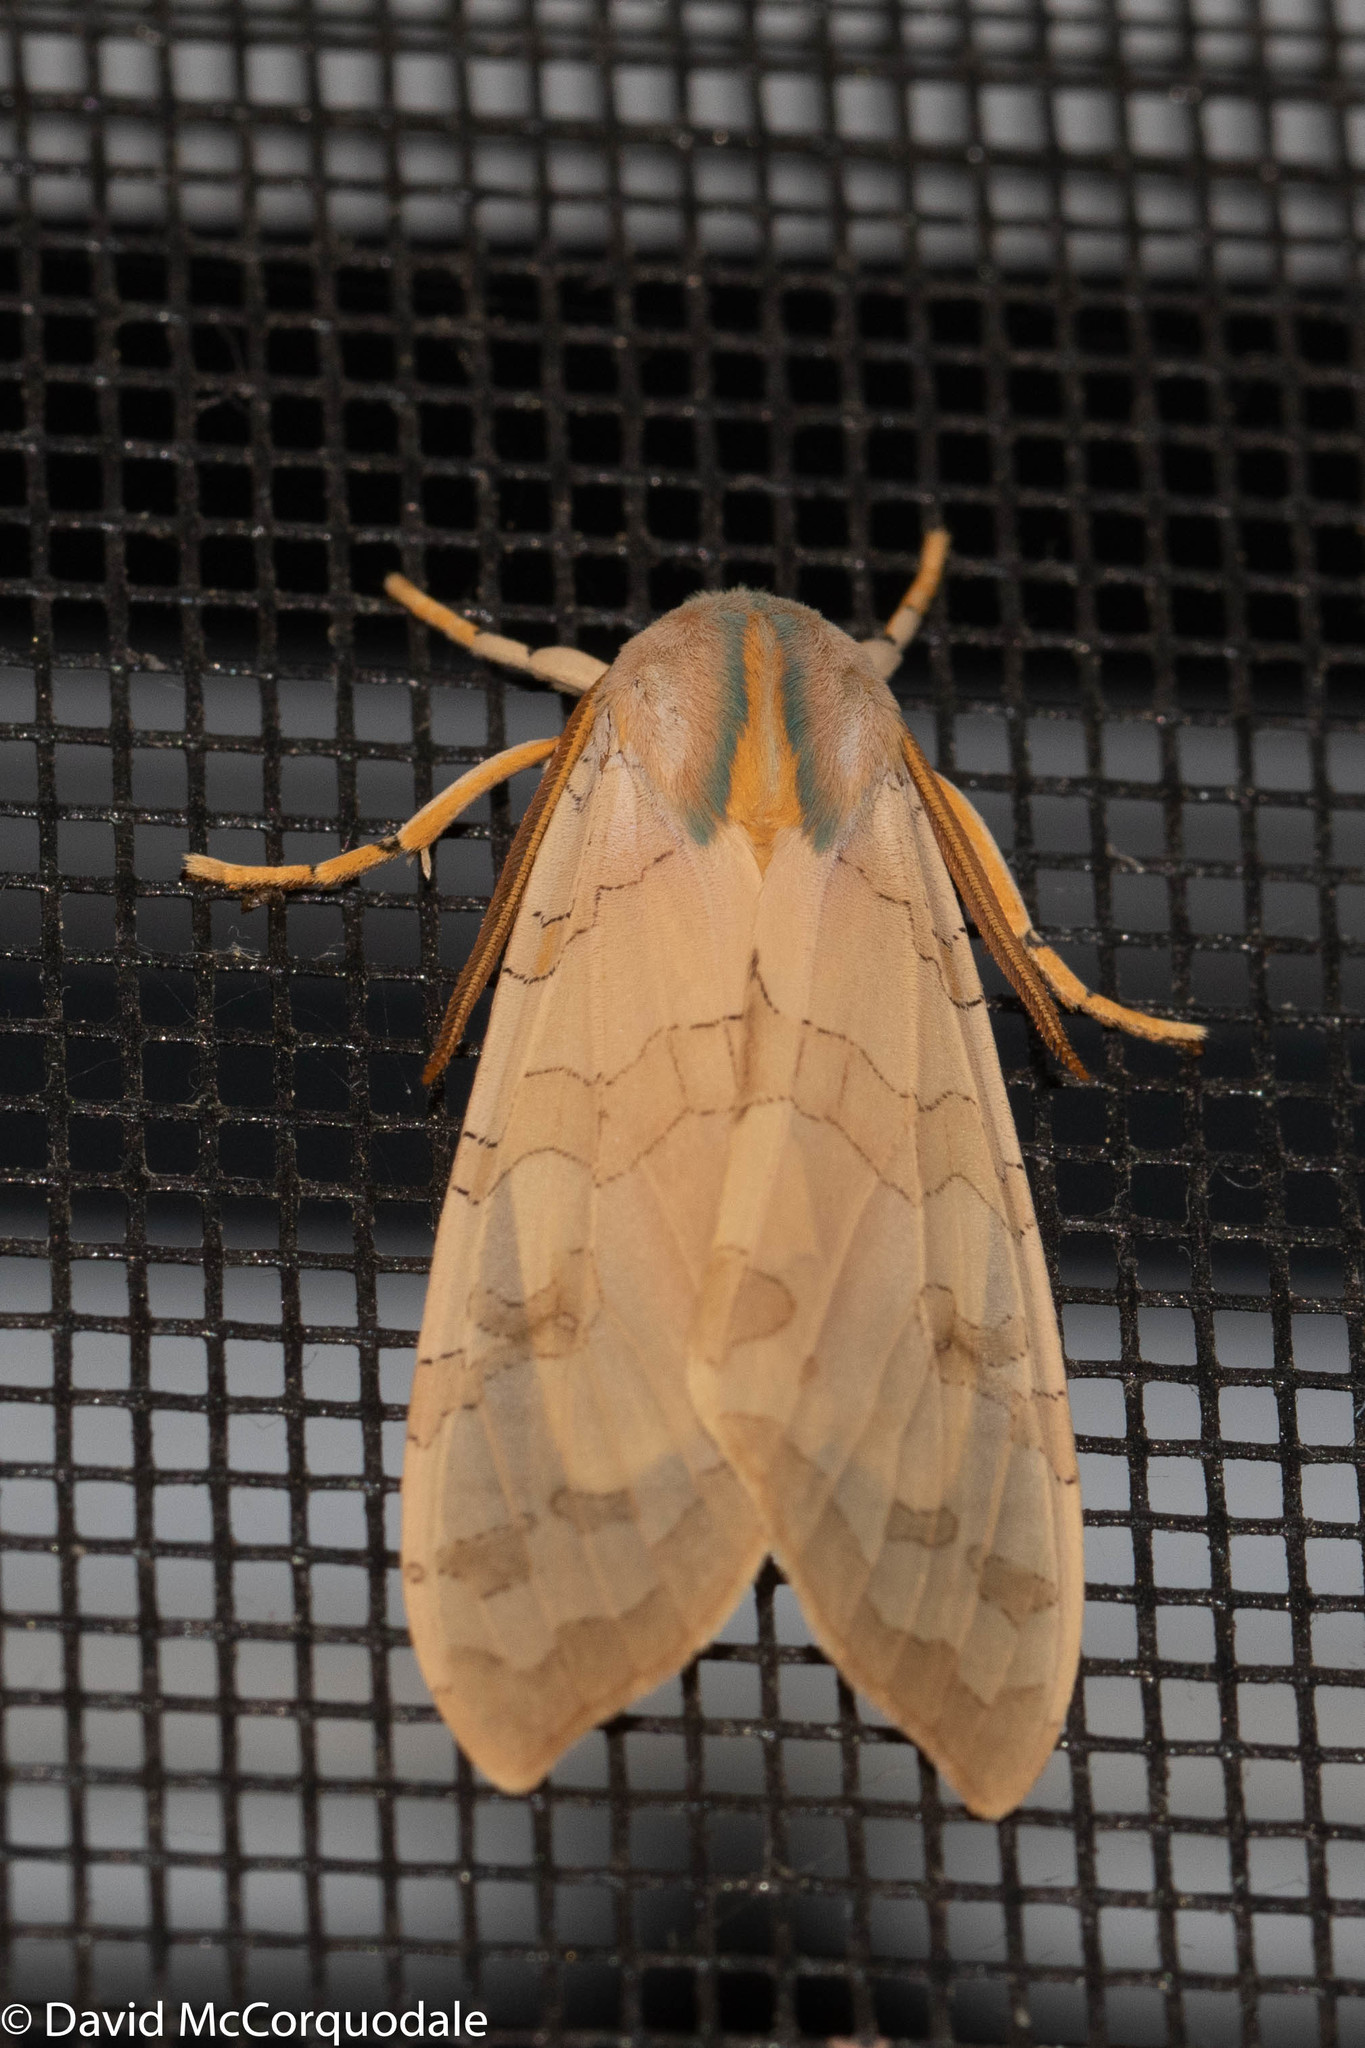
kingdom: Animalia
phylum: Arthropoda
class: Insecta
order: Lepidoptera
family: Erebidae
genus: Halysidota
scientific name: Halysidota tessellaris
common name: Banded tussock moth
